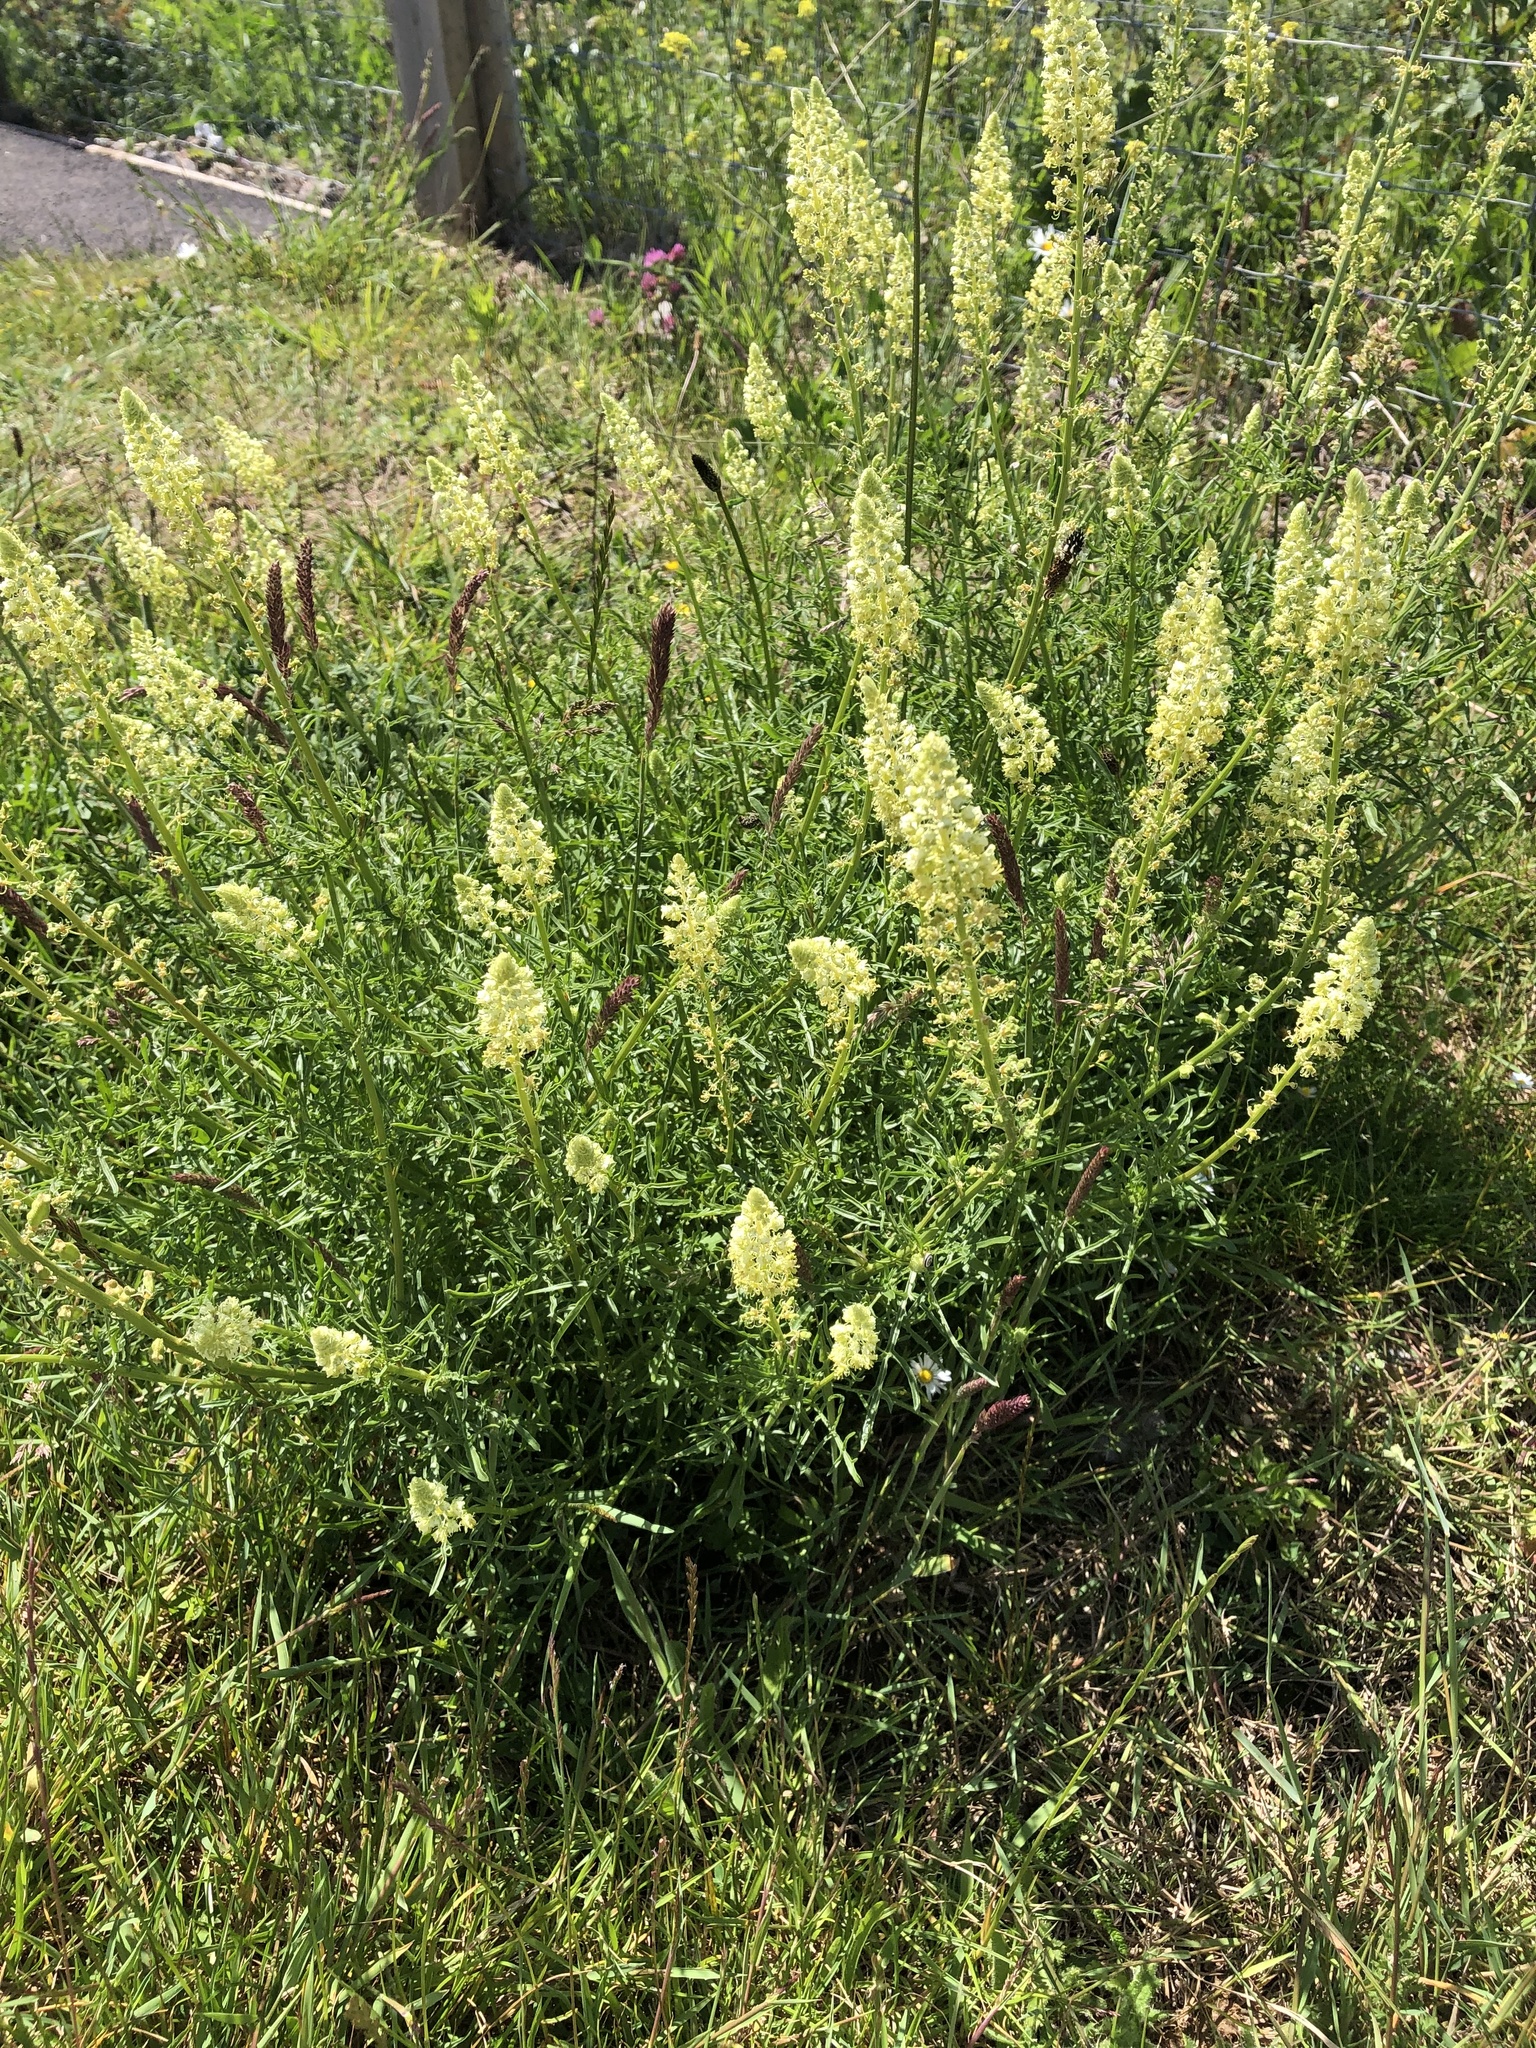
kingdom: Plantae
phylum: Tracheophyta
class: Magnoliopsida
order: Brassicales
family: Resedaceae
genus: Reseda
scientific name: Reseda lutea
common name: Wild mignonette
